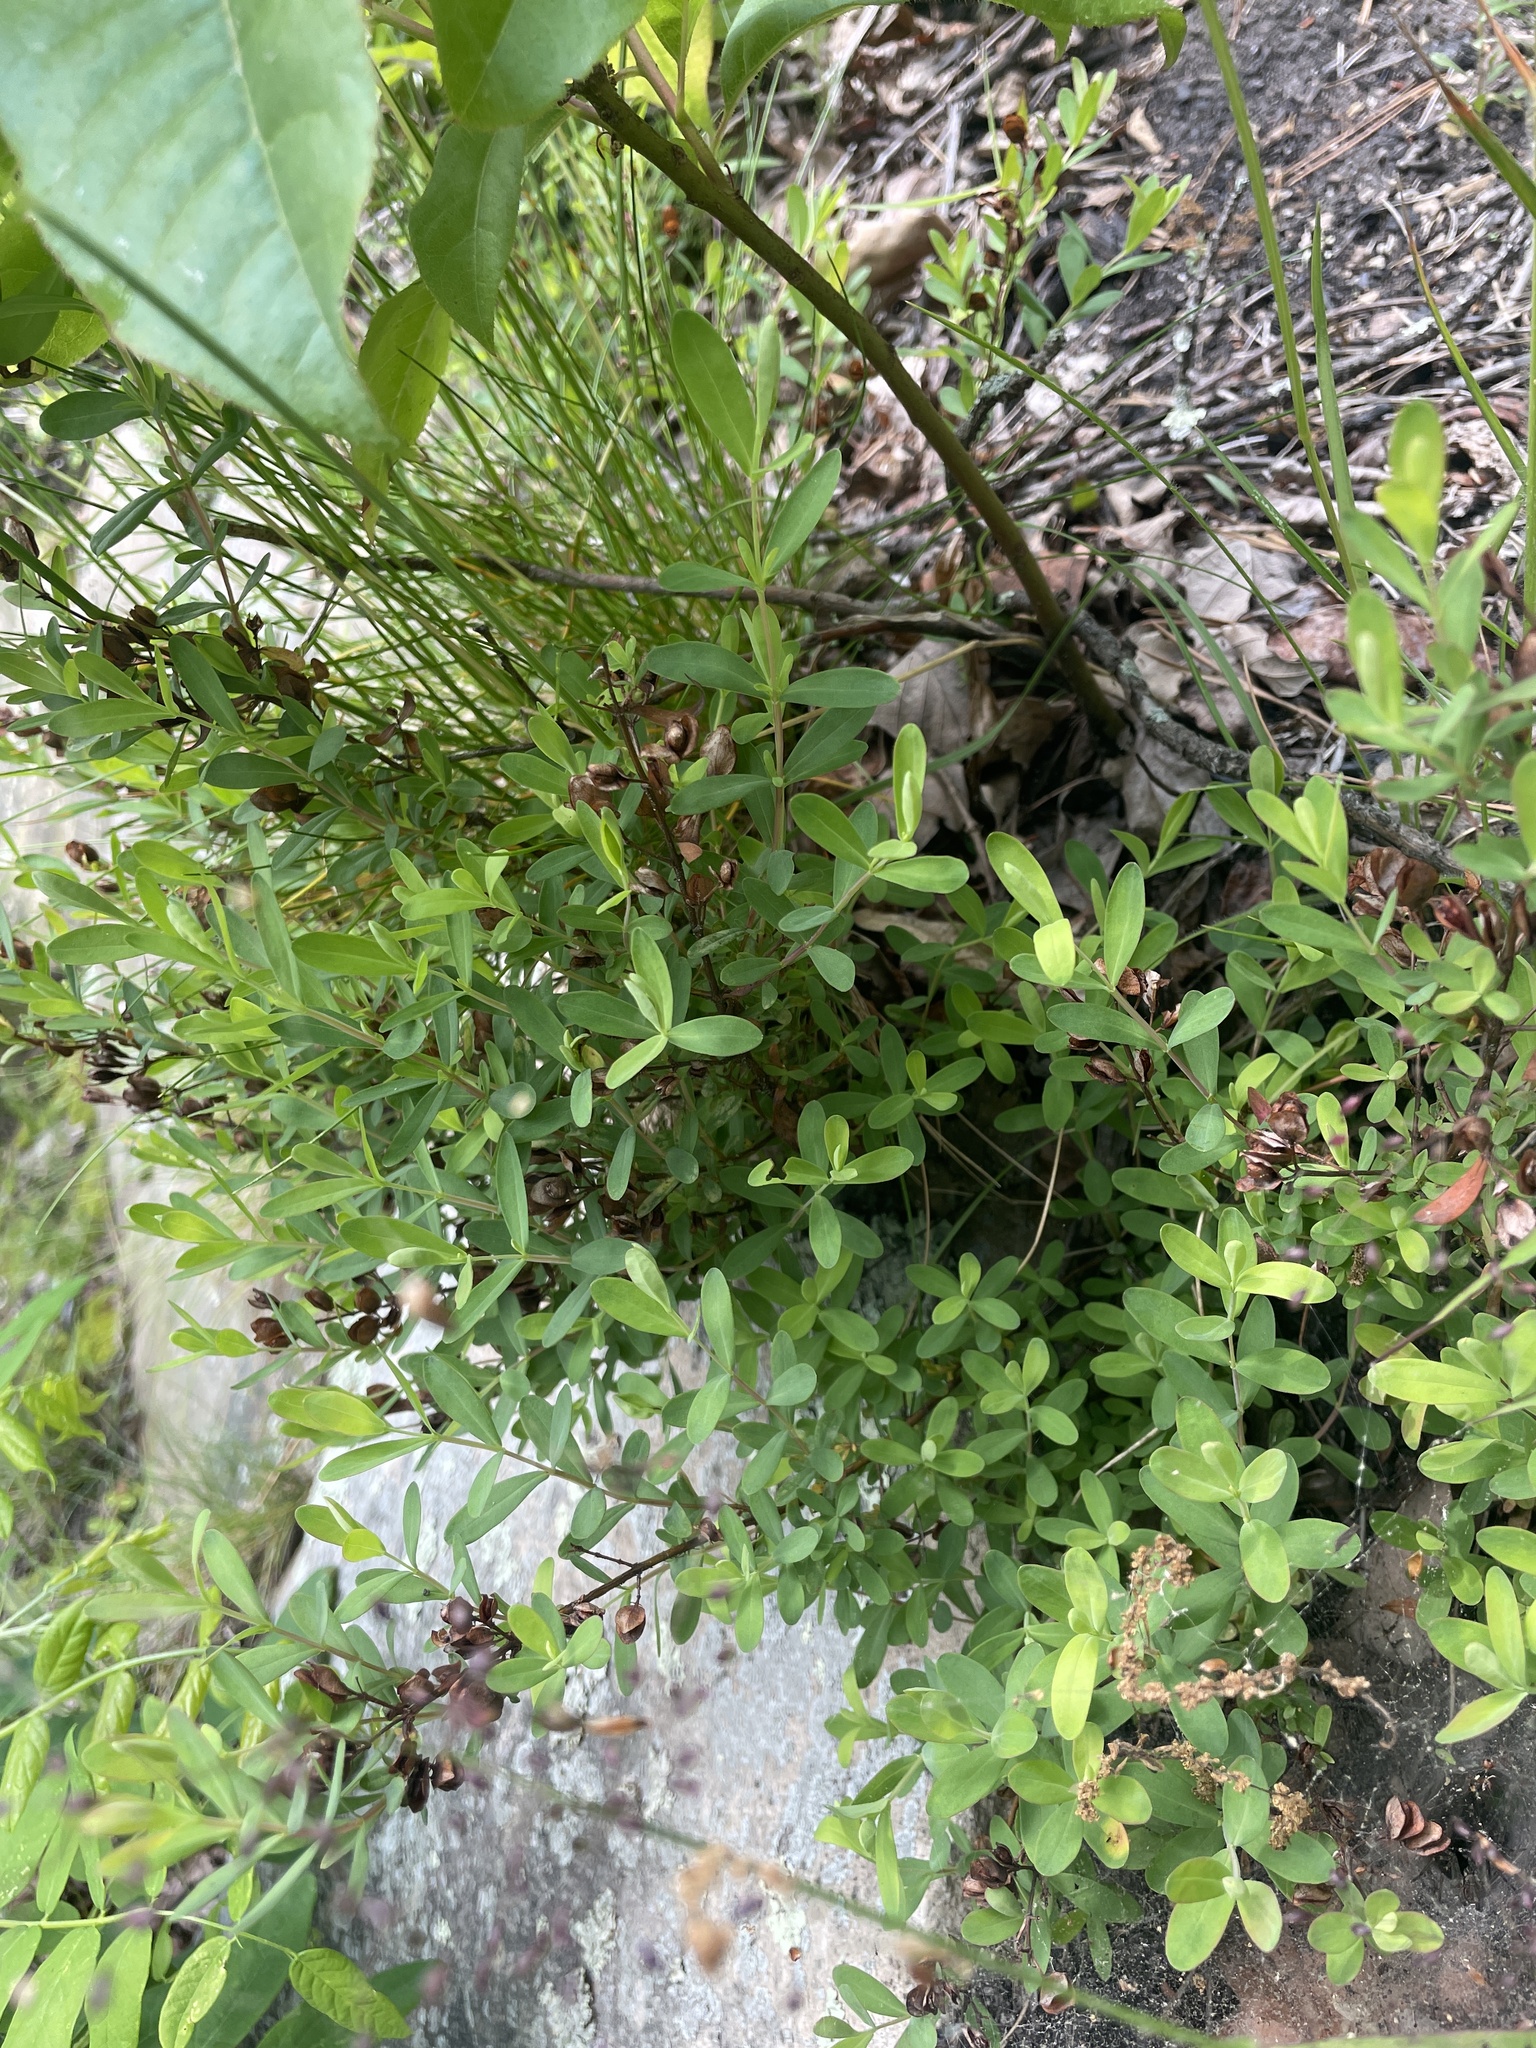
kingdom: Plantae
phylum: Tracheophyta
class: Magnoliopsida
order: Malpighiales
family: Hypericaceae
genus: Hypericum
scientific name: Hypericum hypericoides
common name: St. andrew's cross
